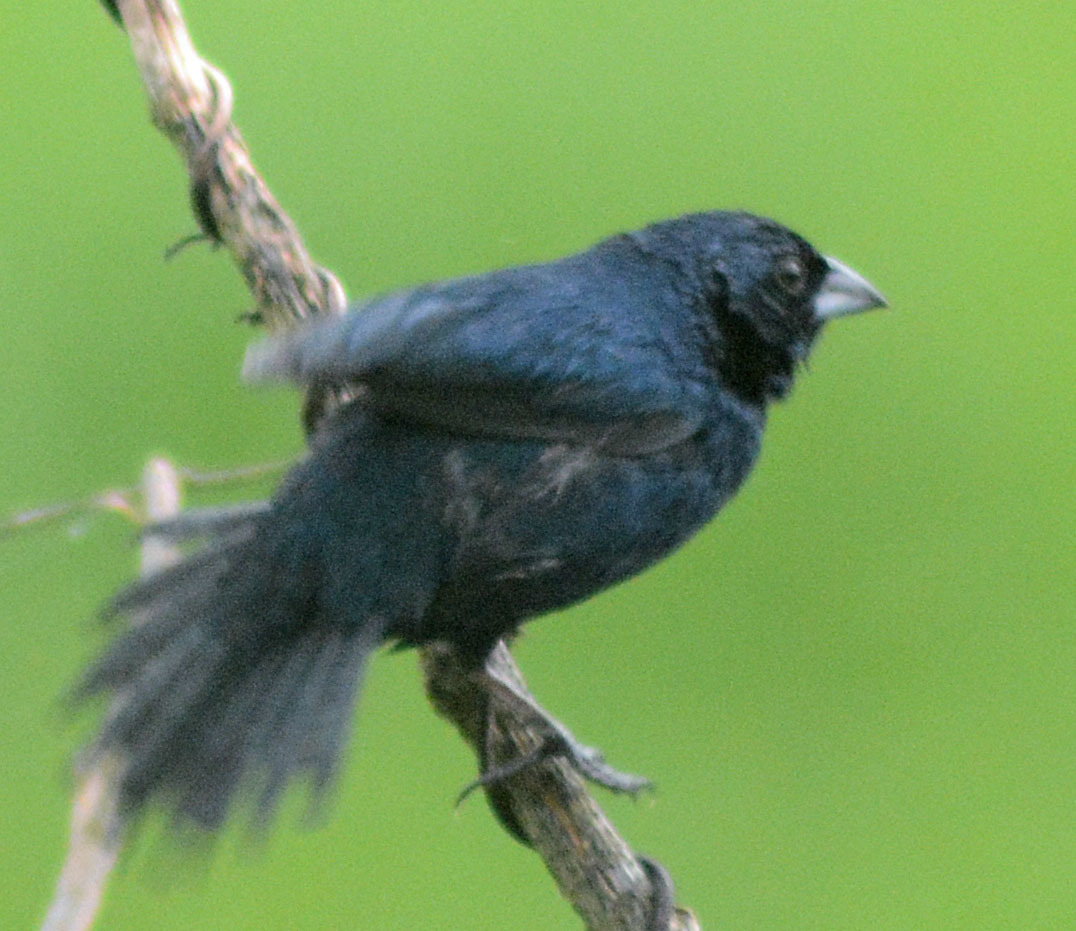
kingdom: Animalia
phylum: Chordata
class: Aves
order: Passeriformes
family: Thraupidae
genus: Volatinia
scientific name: Volatinia jacarina
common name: Blue-black grassquit
